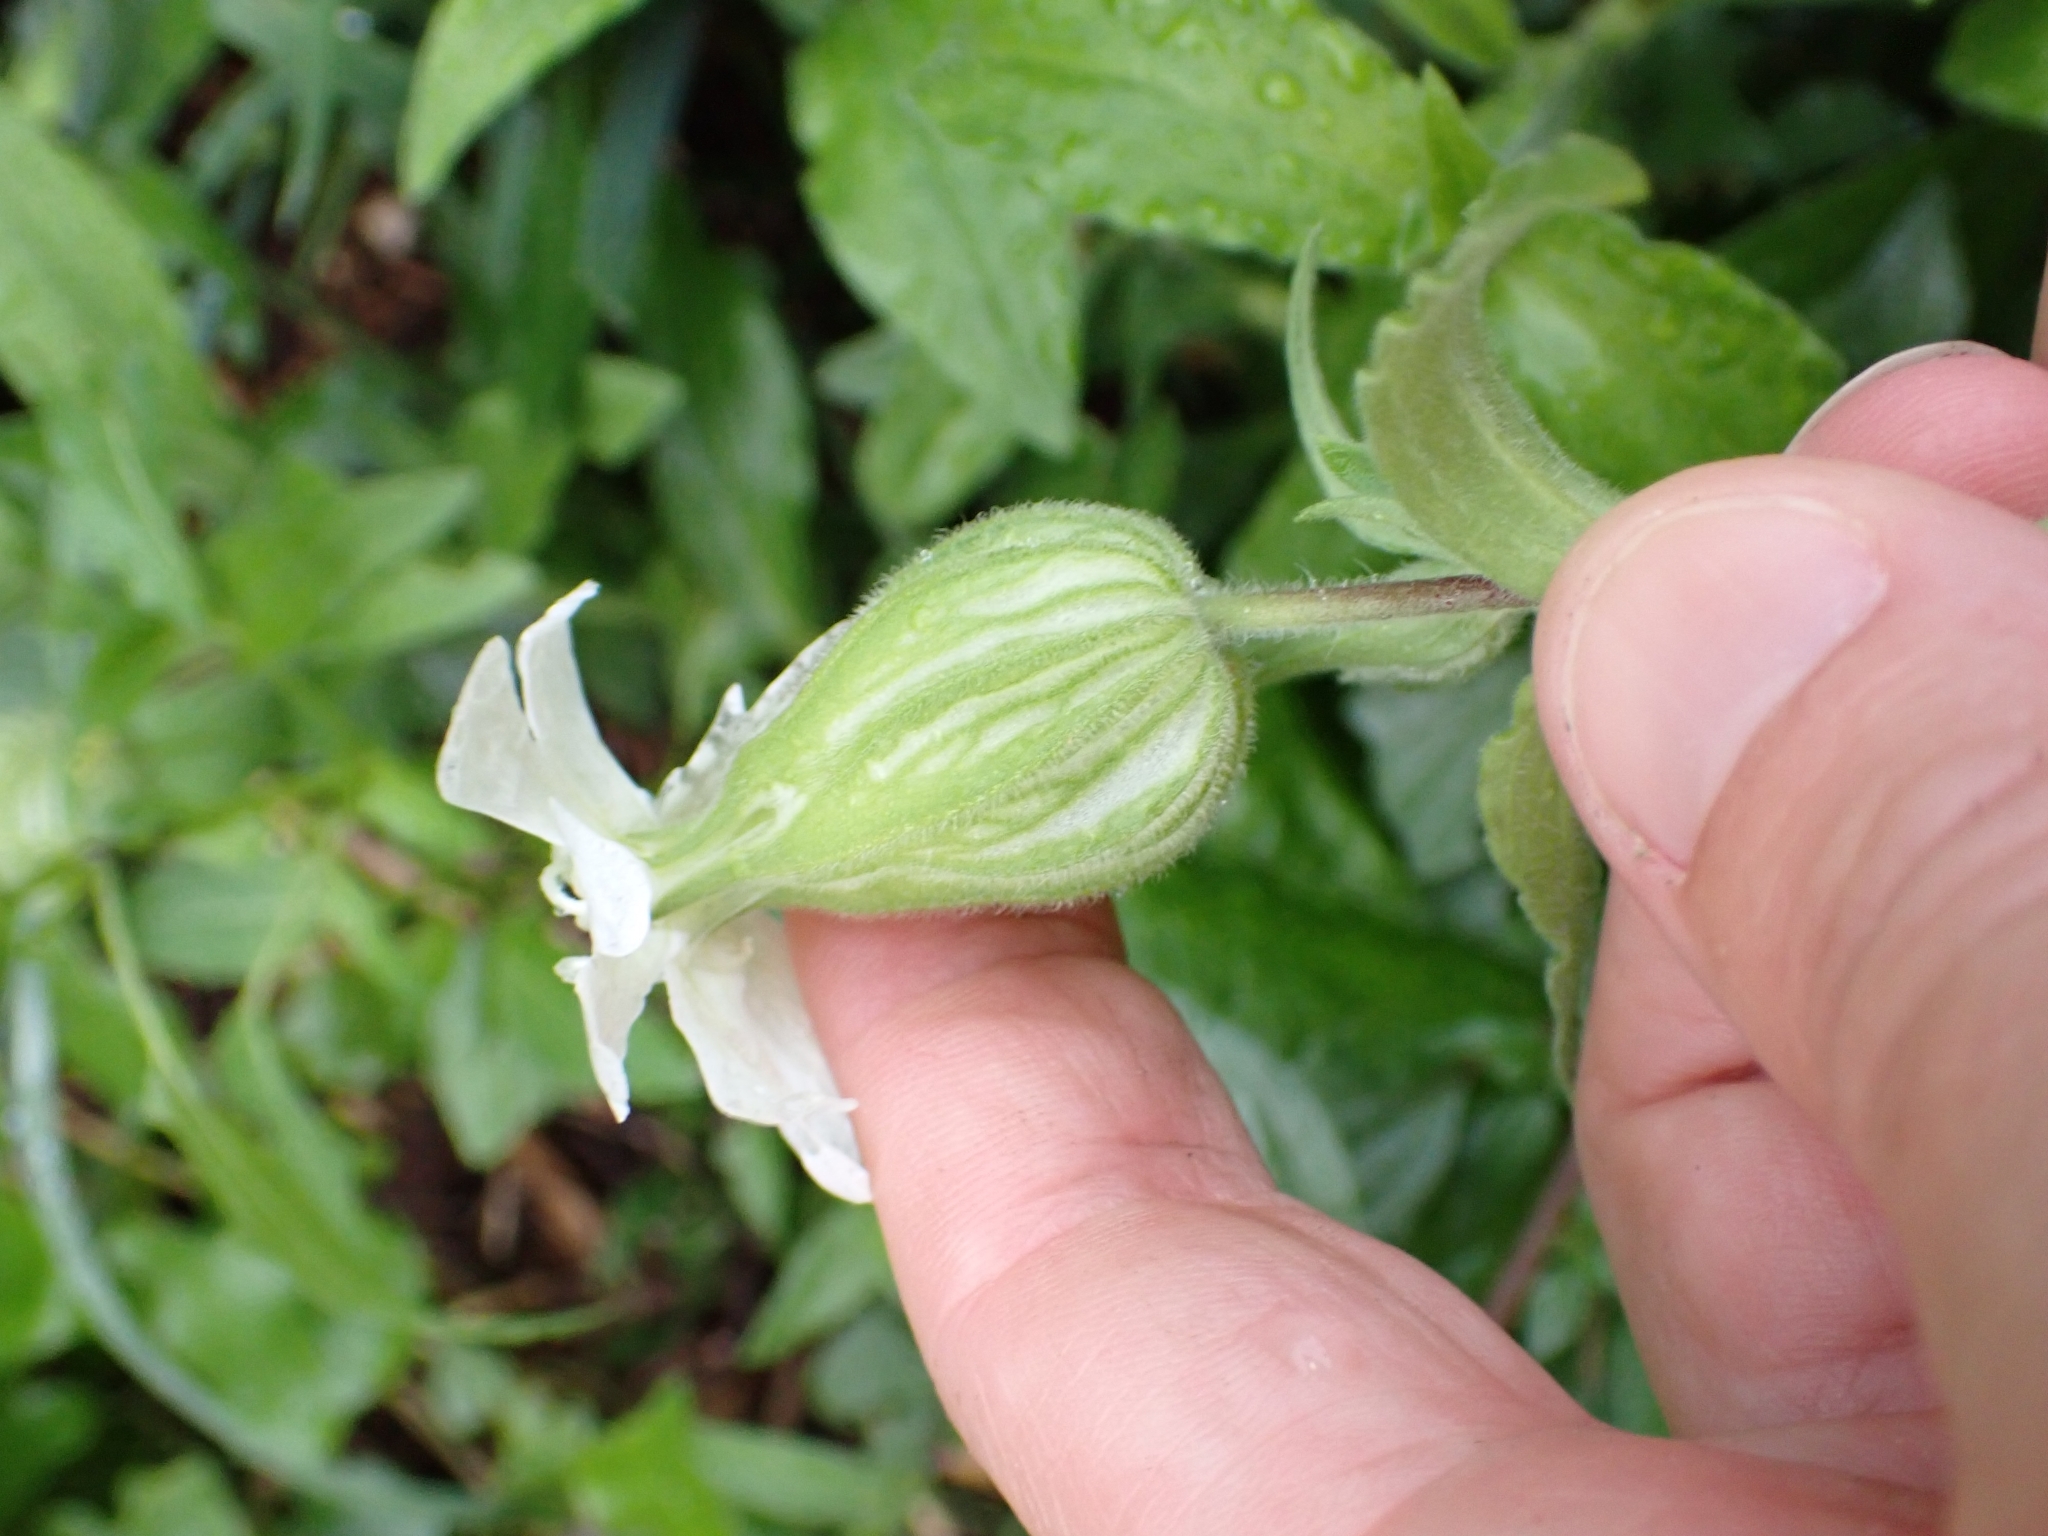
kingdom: Plantae
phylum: Tracheophyta
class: Magnoliopsida
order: Caryophyllales
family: Caryophyllaceae
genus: Silene
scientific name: Silene latifolia
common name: White campion
